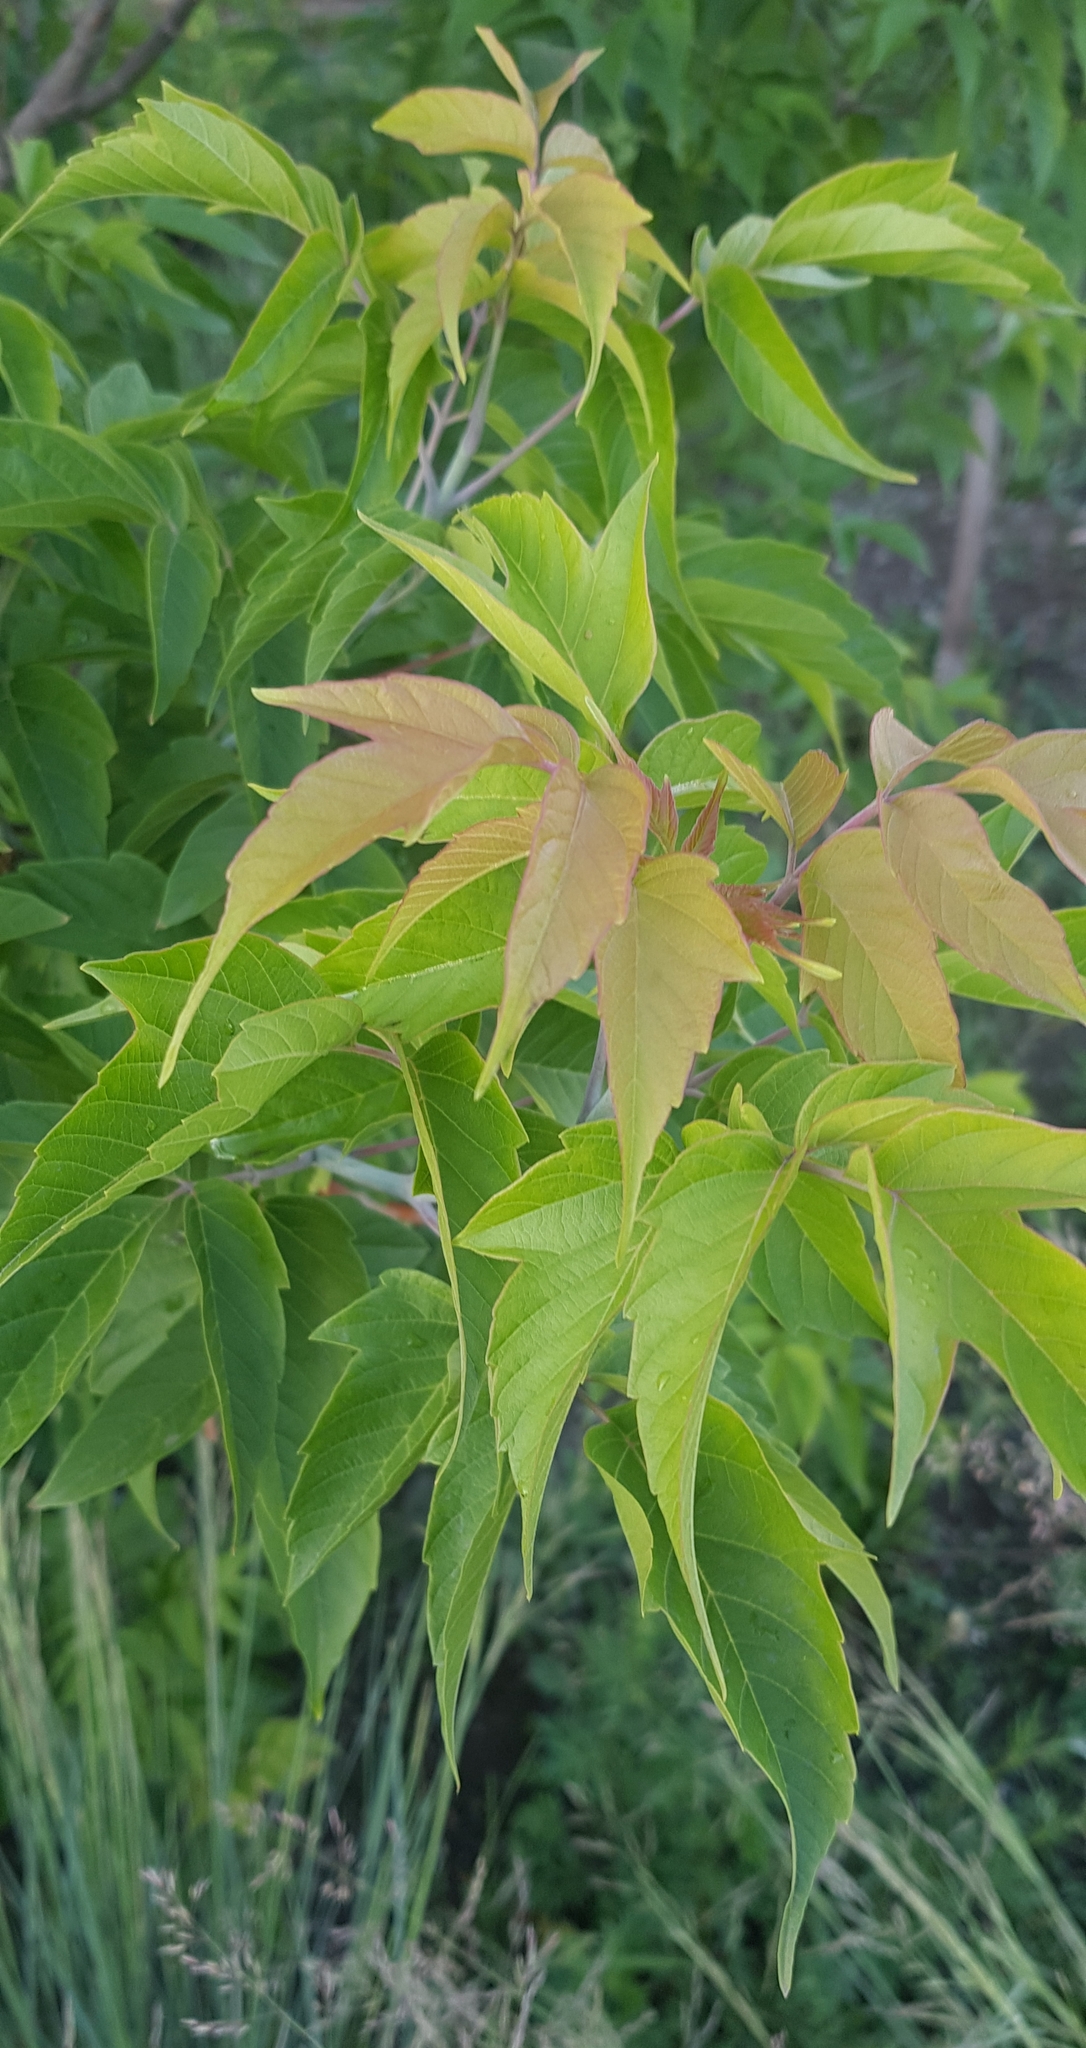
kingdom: Plantae
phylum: Tracheophyta
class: Magnoliopsida
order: Sapindales
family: Sapindaceae
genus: Acer
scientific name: Acer negundo
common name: Ashleaf maple
